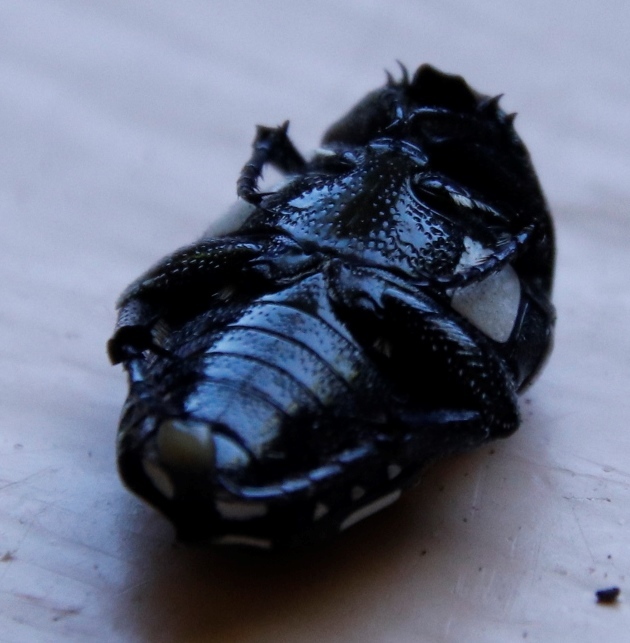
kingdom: Animalia
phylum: Arthropoda
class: Insecta
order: Coleoptera
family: Scarabaeidae
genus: Mausoleopsis
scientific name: Mausoleopsis amabilis
